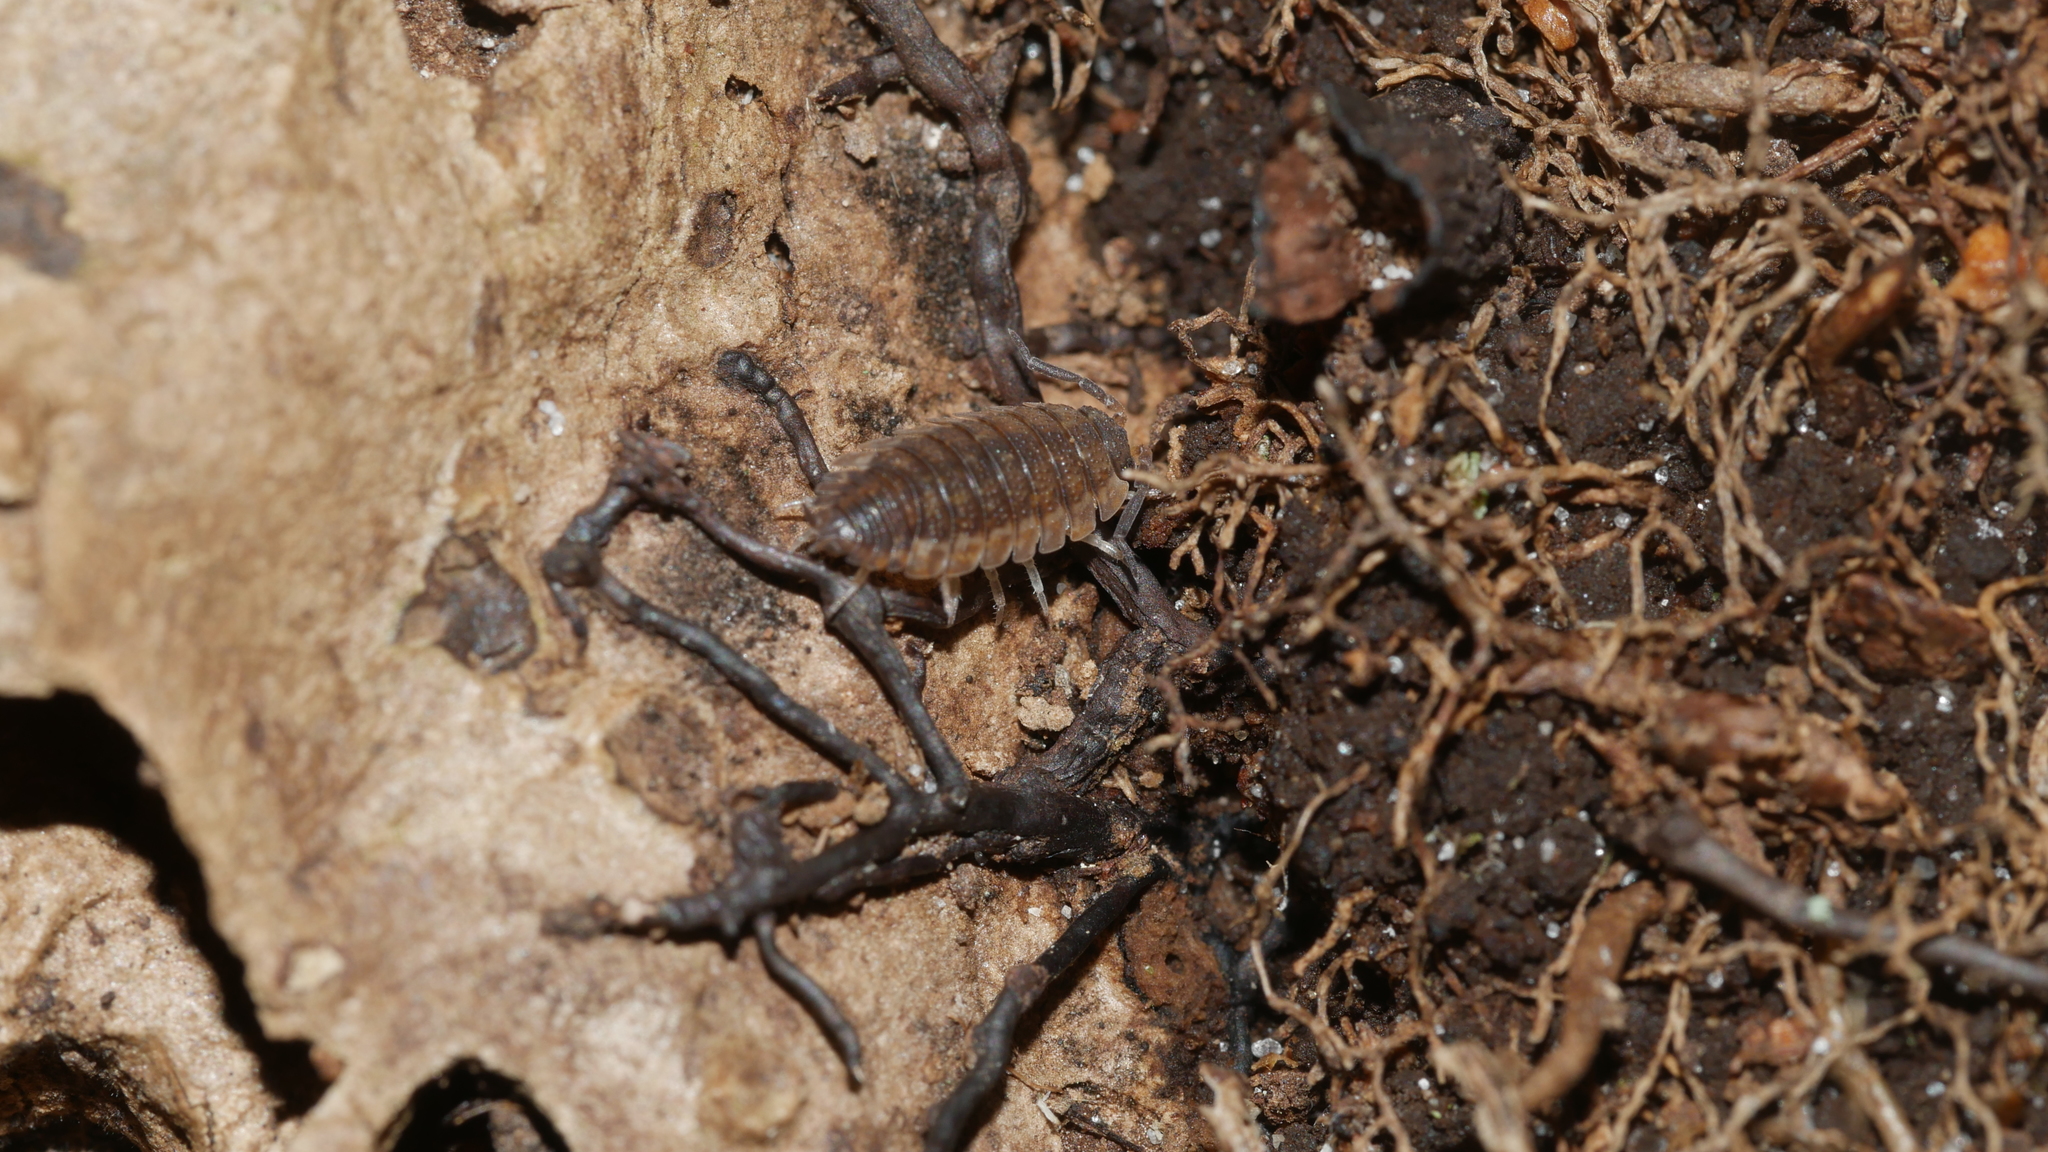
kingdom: Animalia
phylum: Arthropoda
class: Malacostraca
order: Isopoda
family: Porcellionidae
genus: Porcellio
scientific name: Porcellio scaber
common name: Common rough woodlouse
